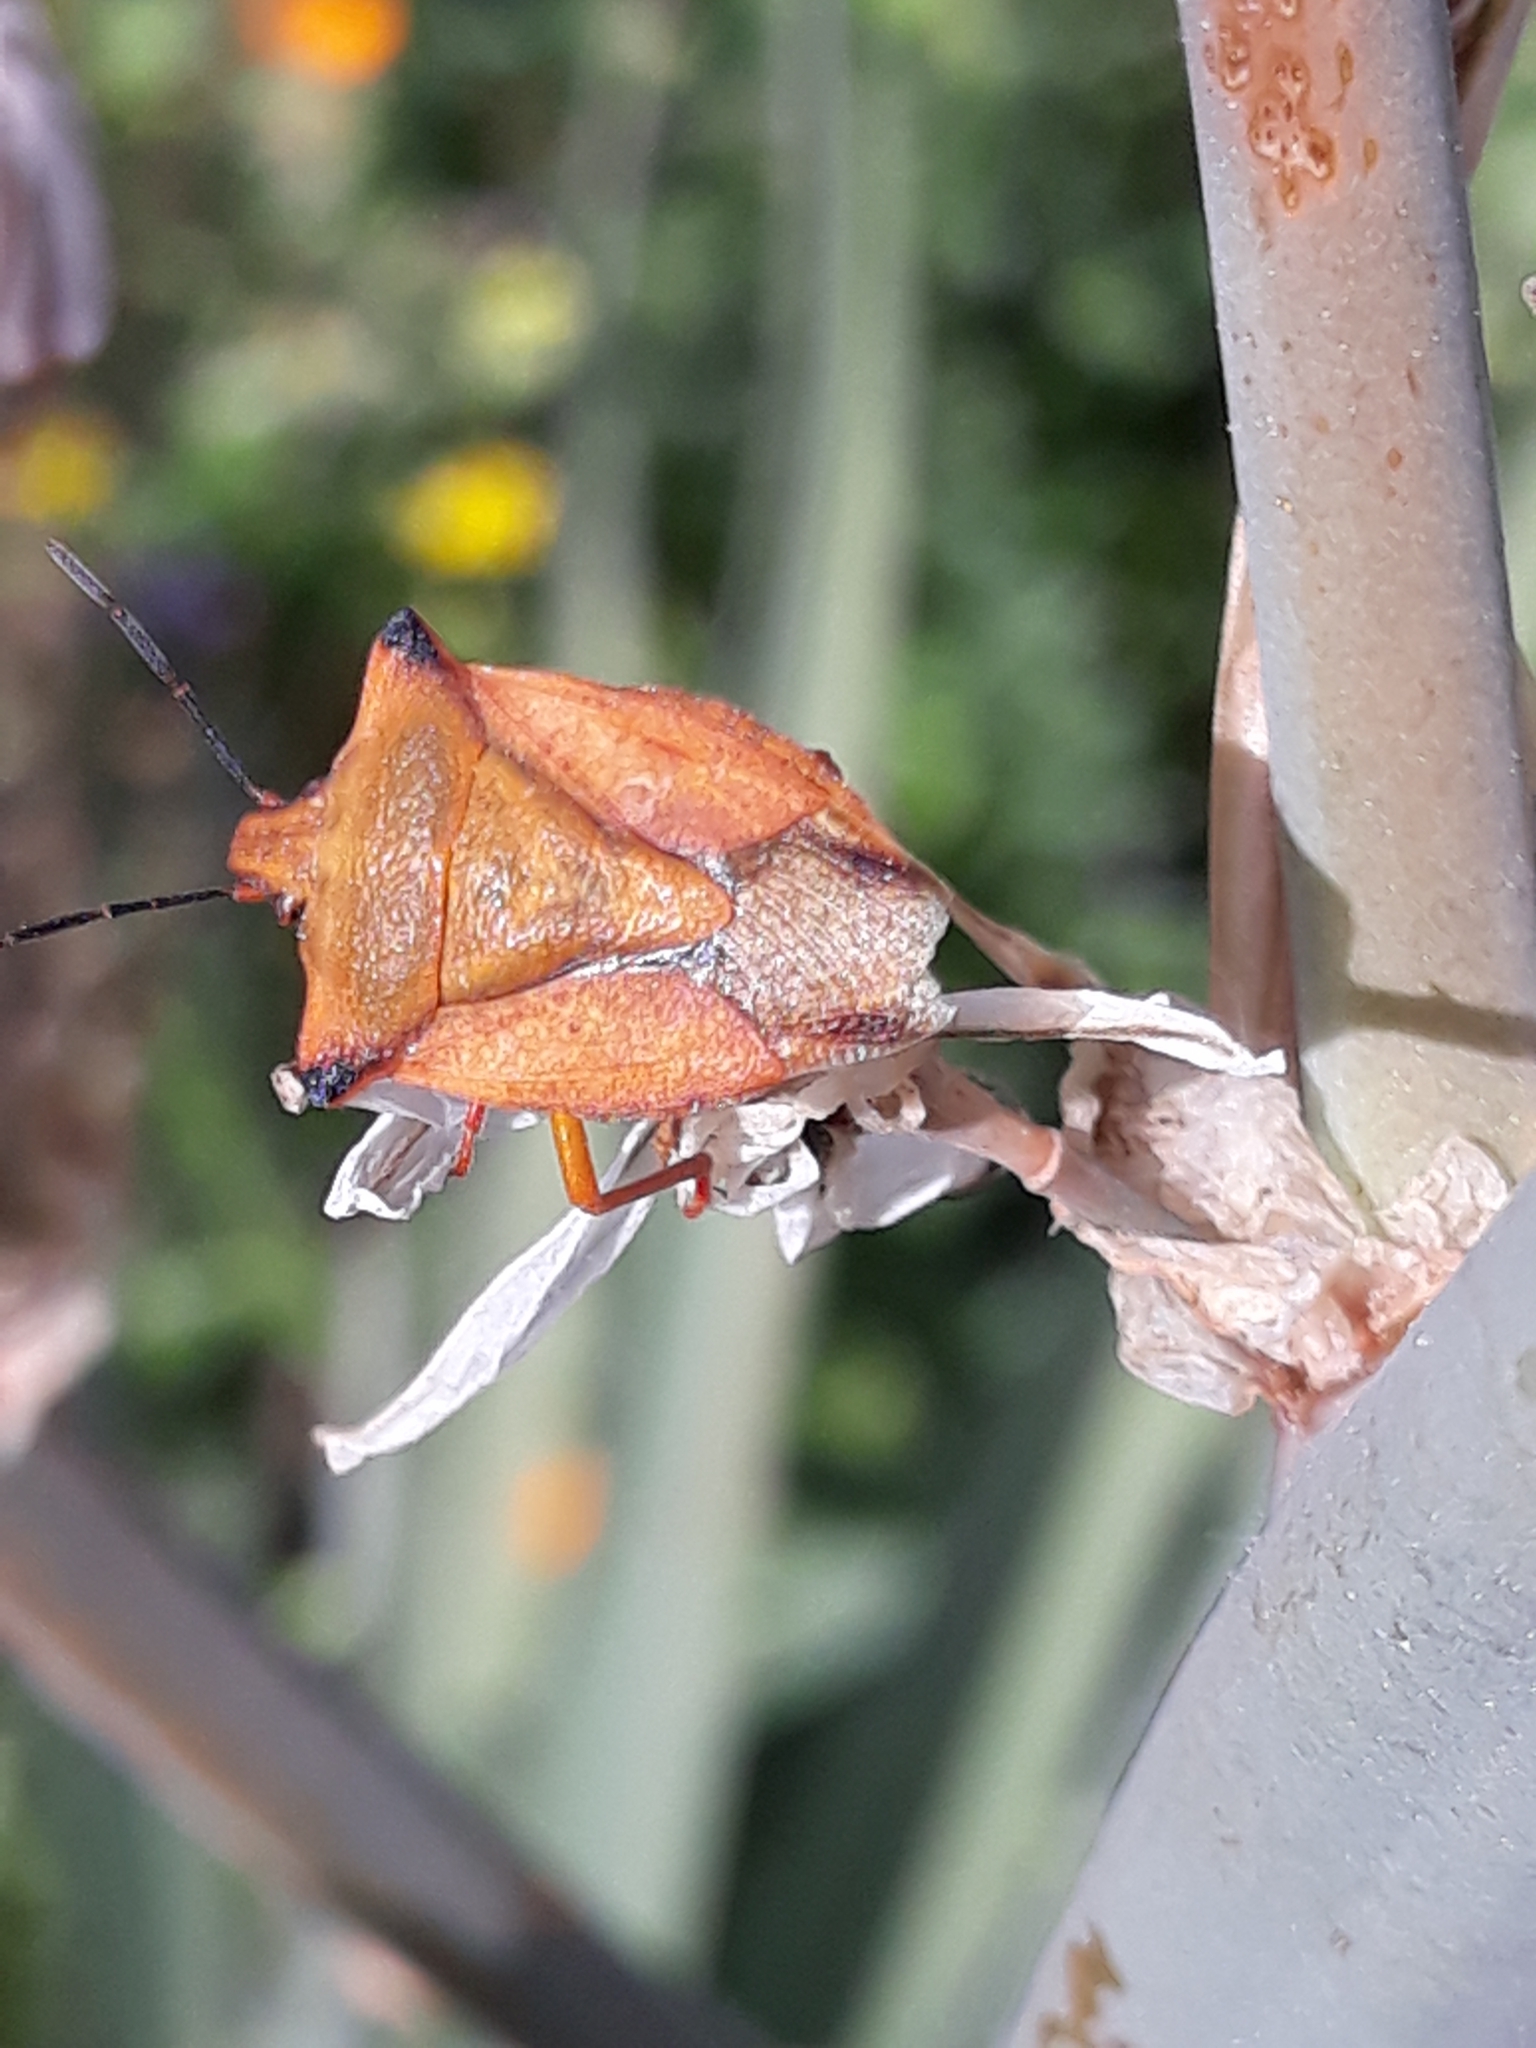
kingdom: Animalia
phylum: Arthropoda
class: Insecta
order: Hemiptera
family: Pentatomidae
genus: Carpocoris
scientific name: Carpocoris mediterraneus
